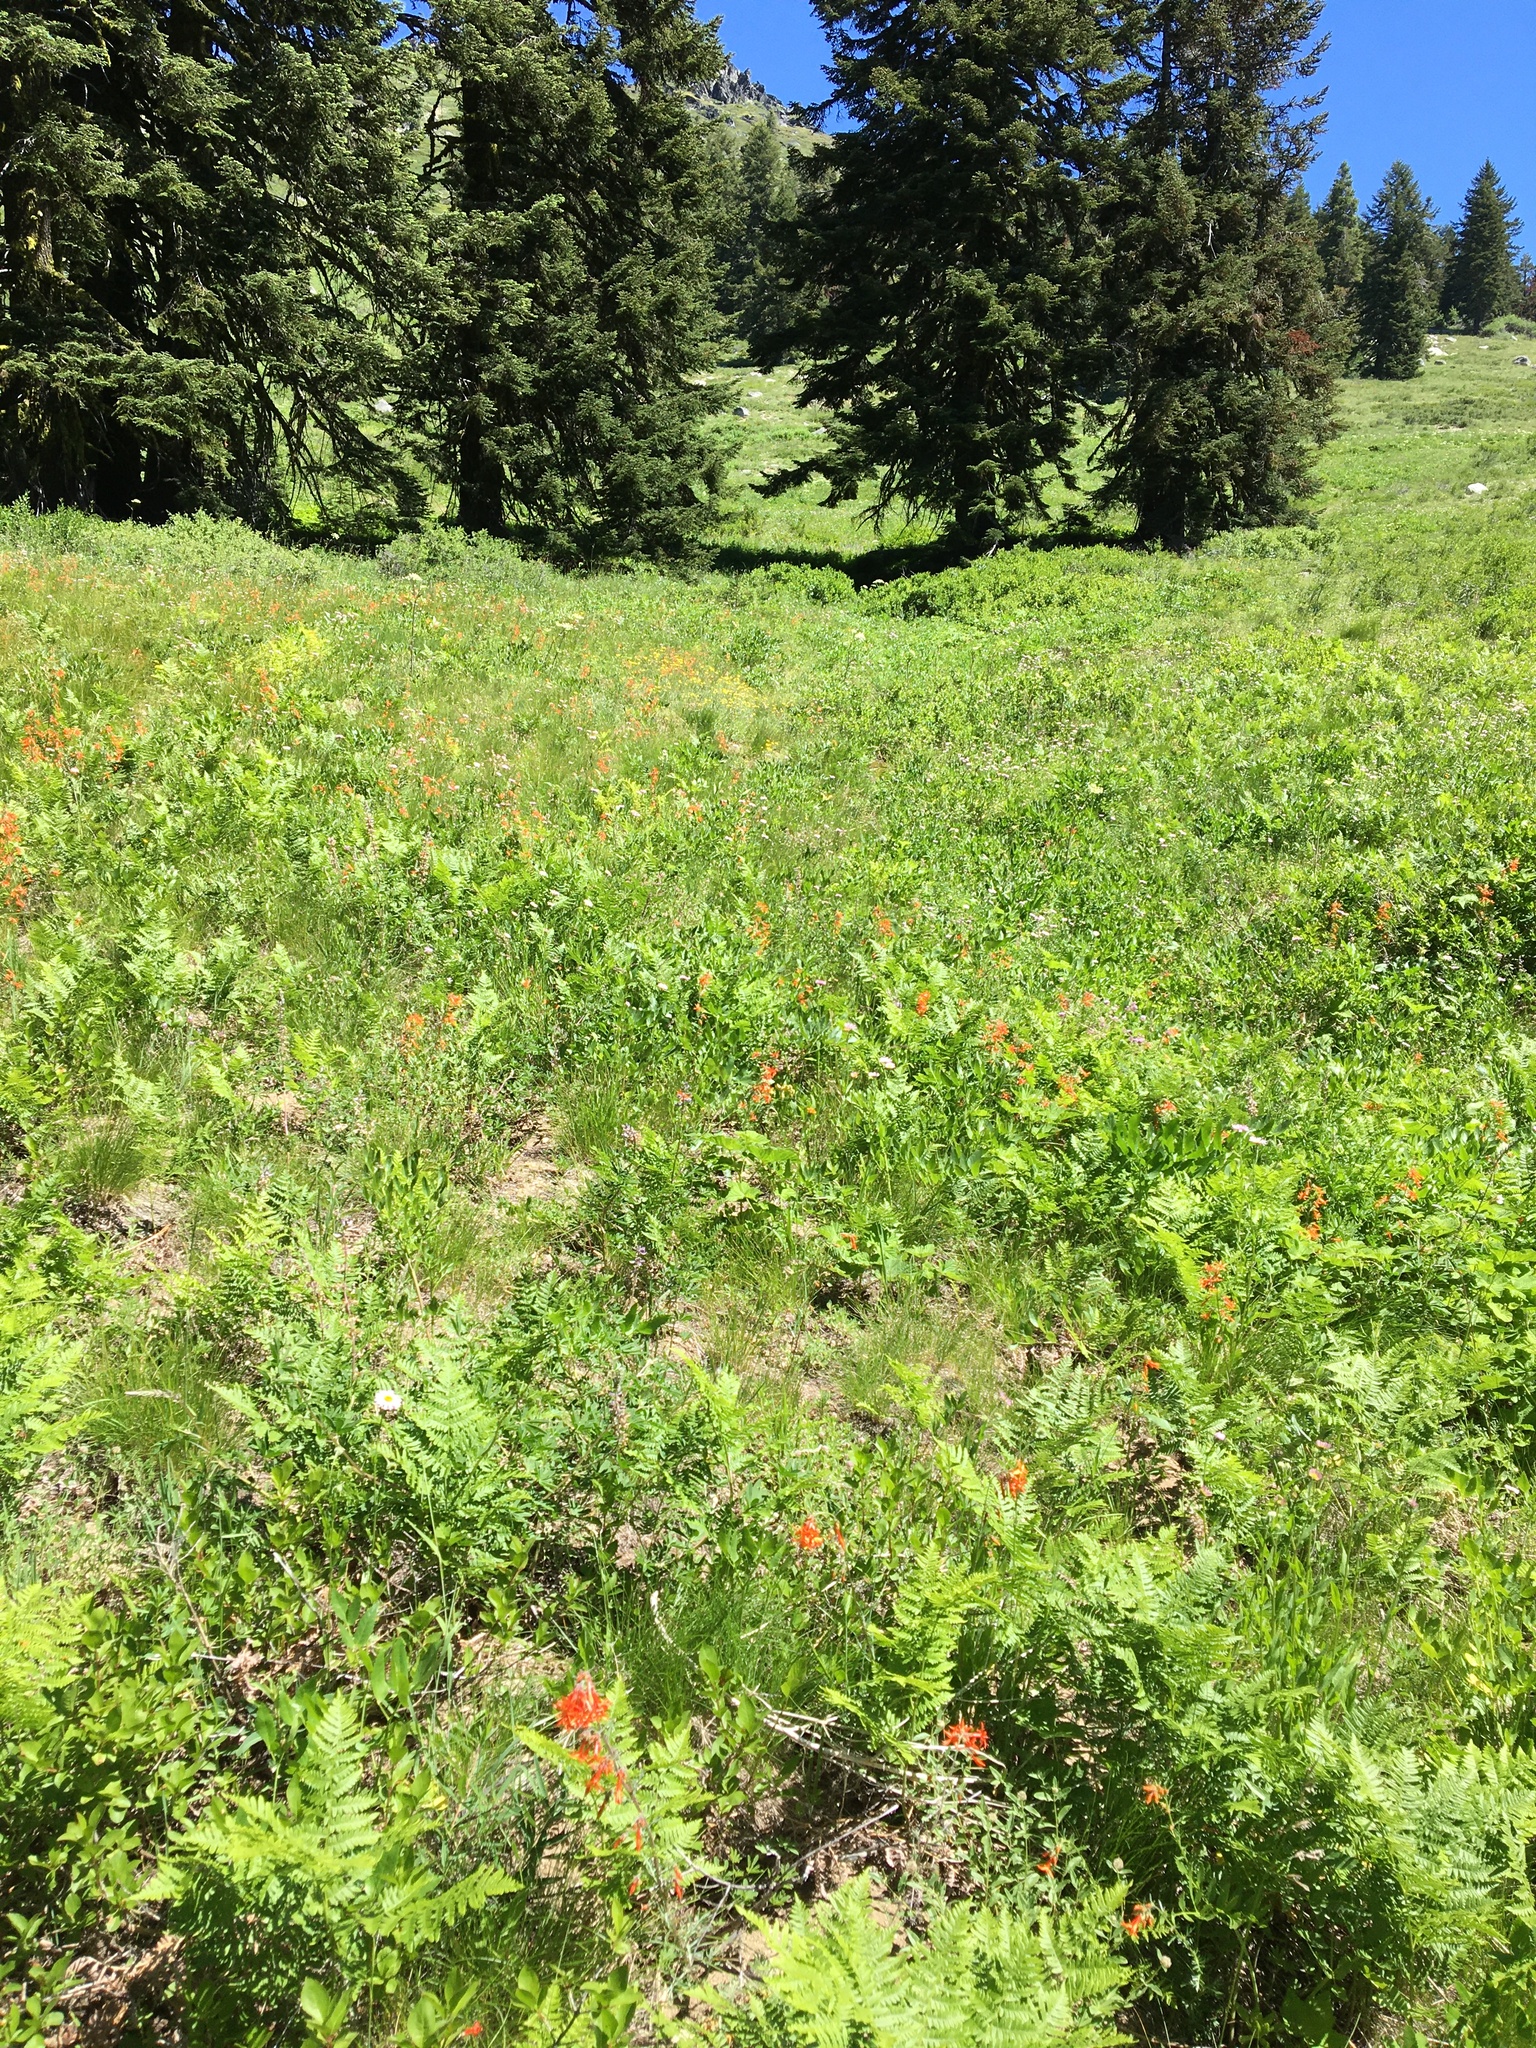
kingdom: Plantae
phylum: Tracheophyta
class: Magnoliopsida
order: Ericales
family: Polemoniaceae
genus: Ipomopsis
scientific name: Ipomopsis aggregata
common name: Scarlet gilia
